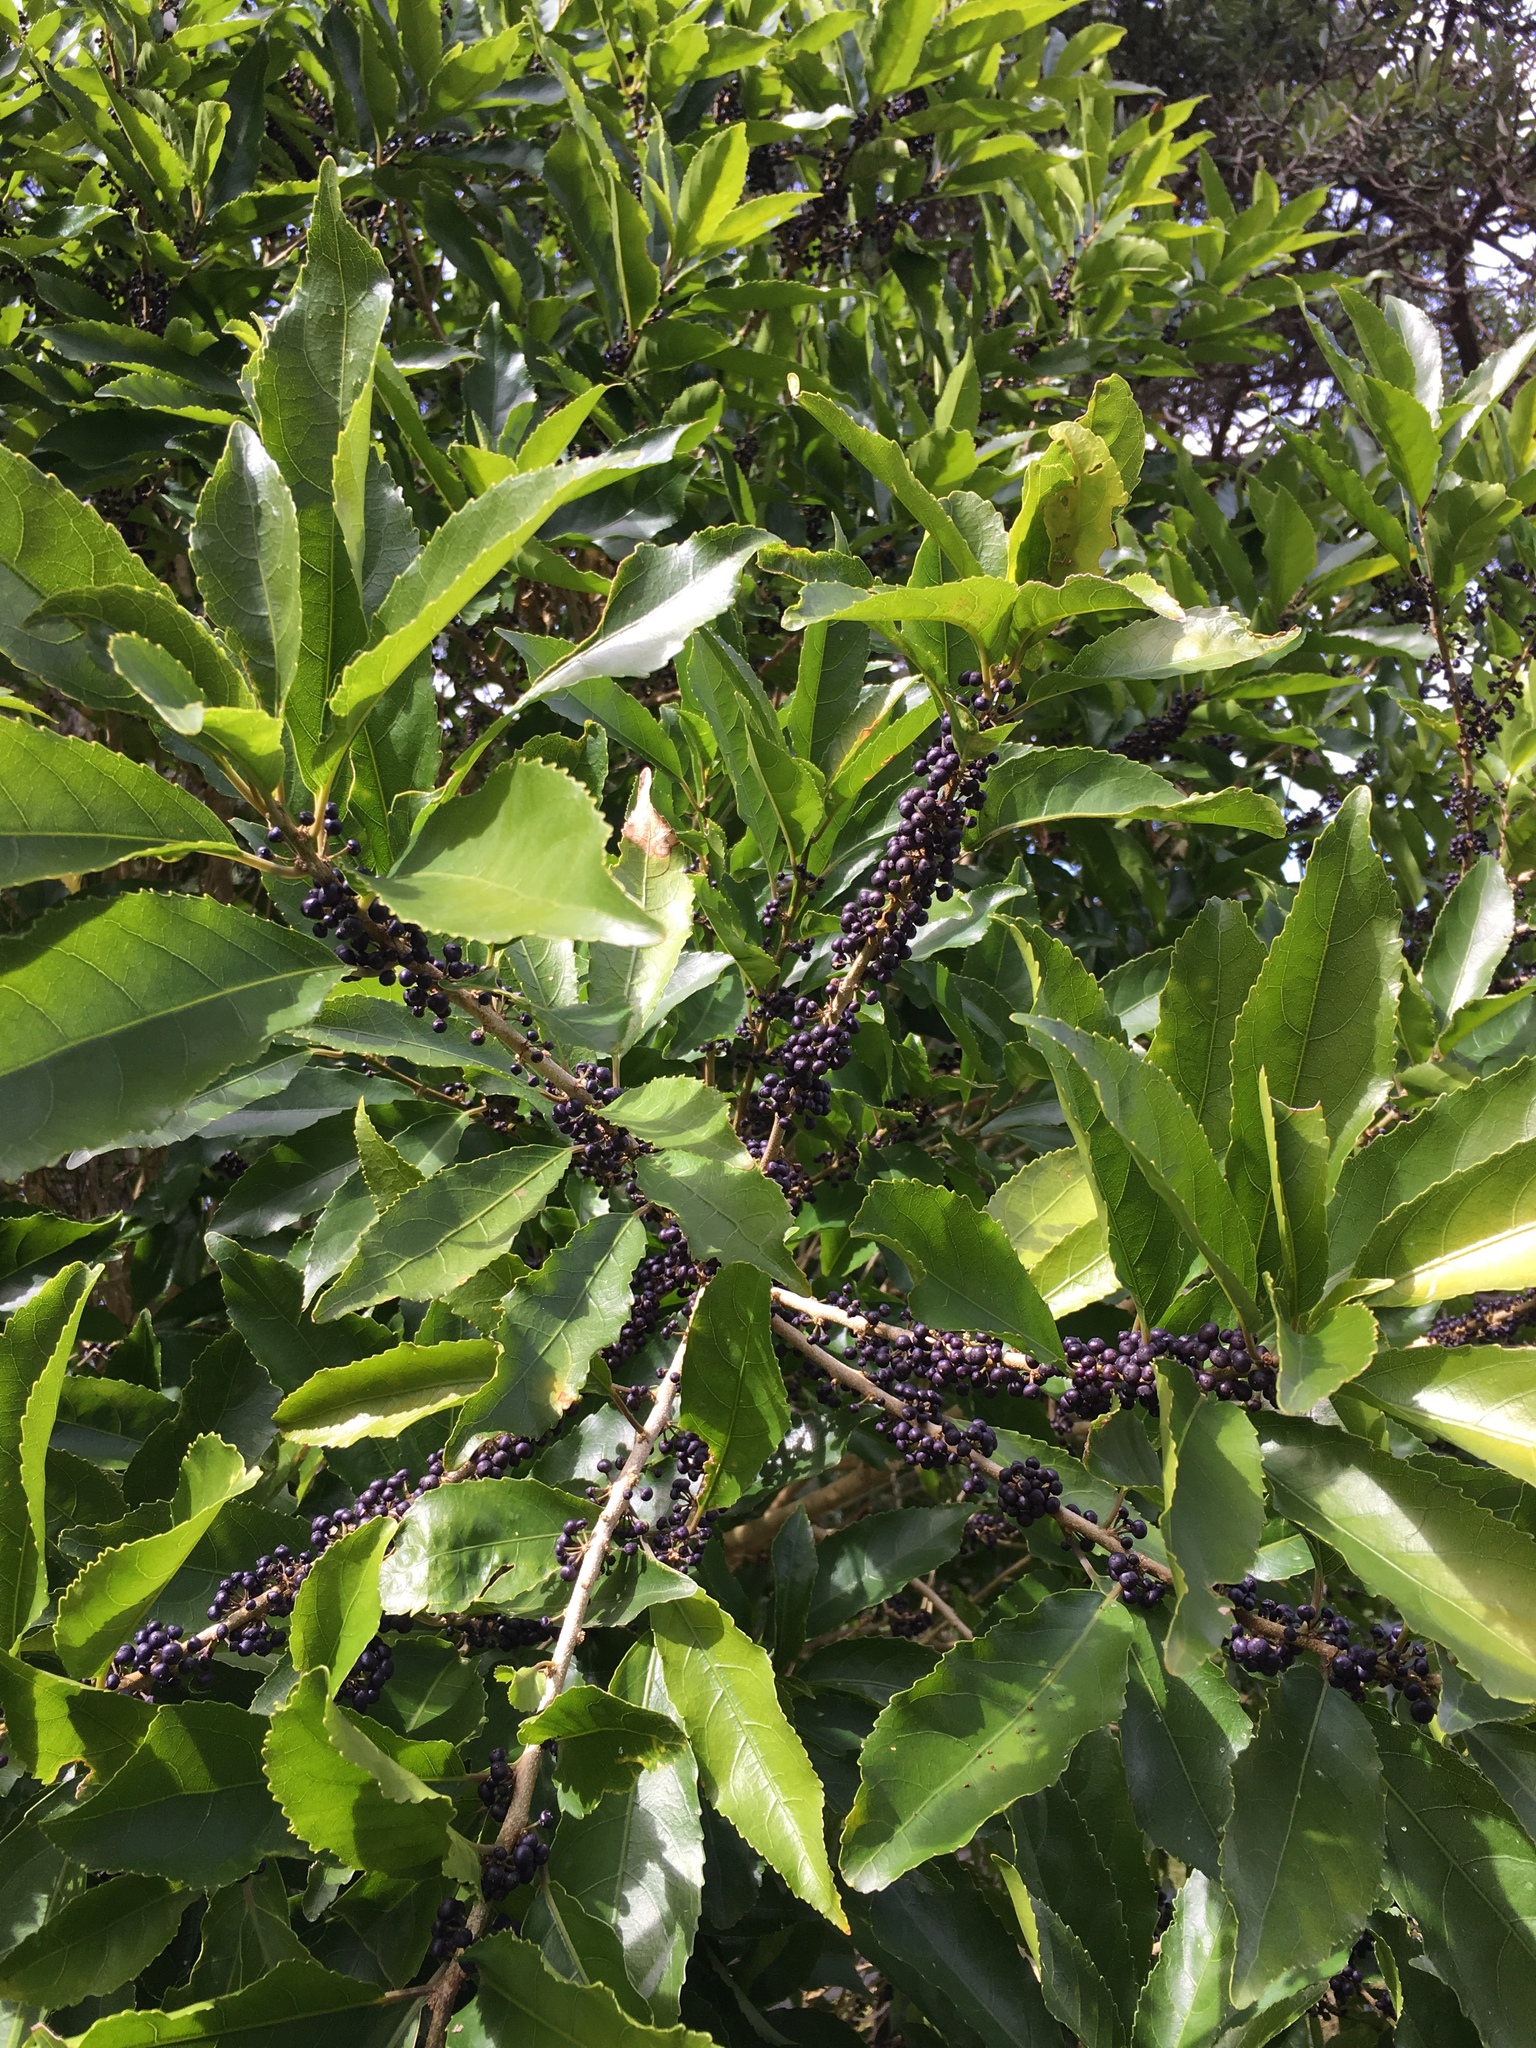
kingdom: Plantae
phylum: Tracheophyta
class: Magnoliopsida
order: Malpighiales
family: Violaceae
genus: Melicytus
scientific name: Melicytus ramiflorus
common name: Mahoe
